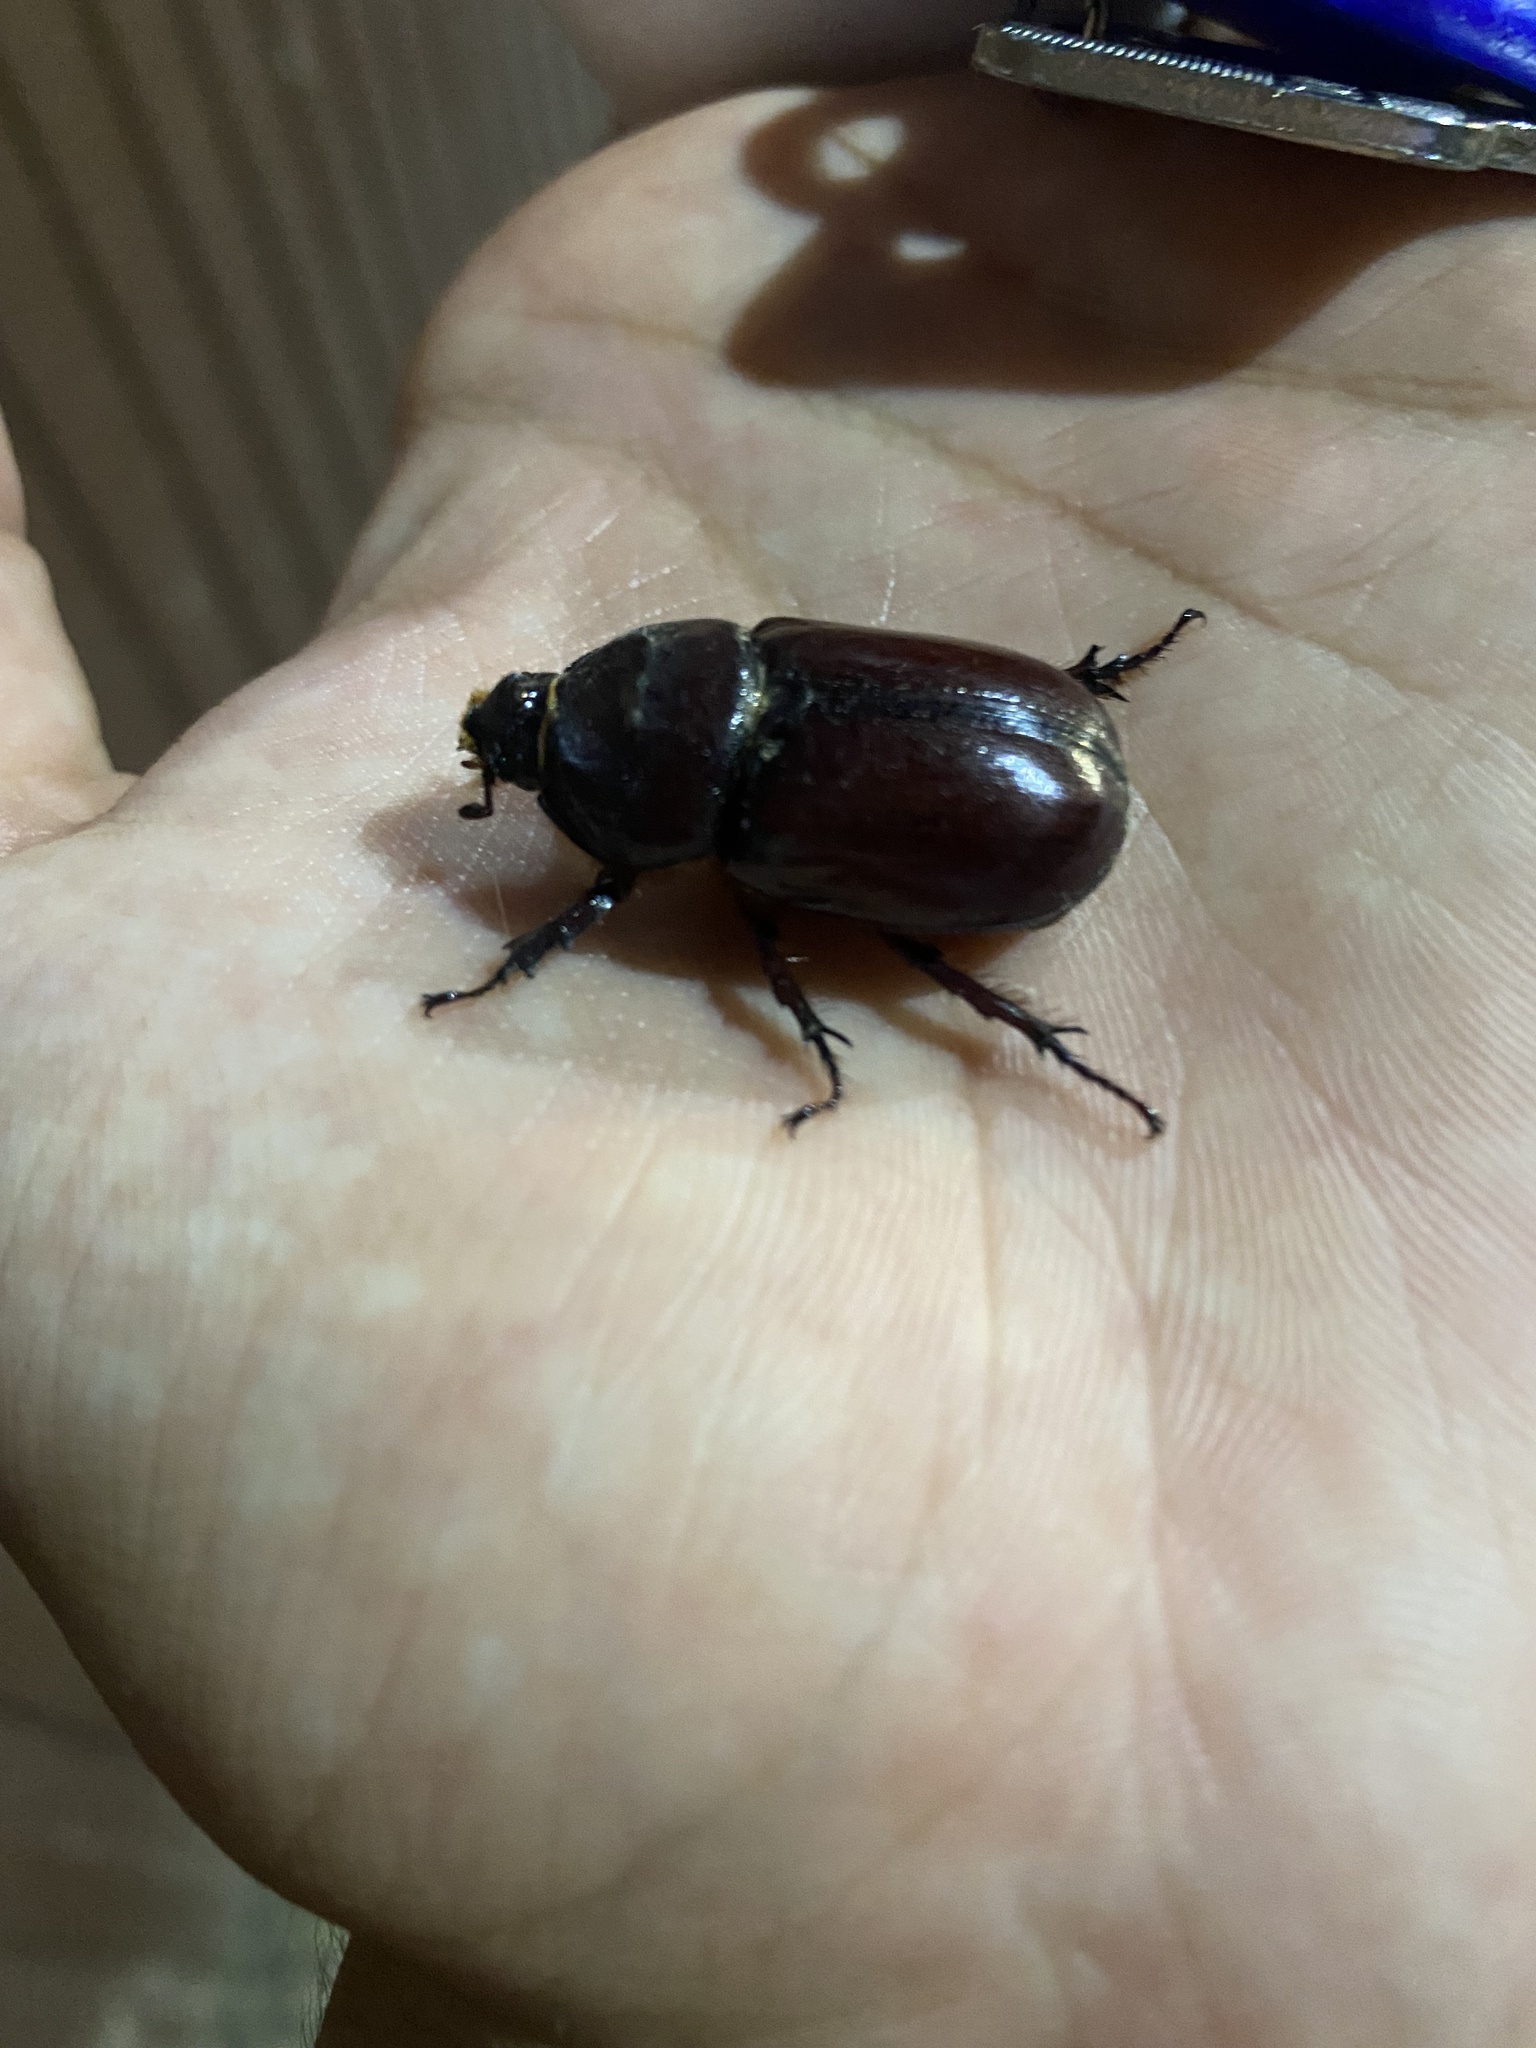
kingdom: Animalia
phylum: Arthropoda
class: Insecta
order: Coleoptera
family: Scarabaeidae
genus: Oryctes
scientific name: Oryctes nasicornis
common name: European rhinoceros beetle
